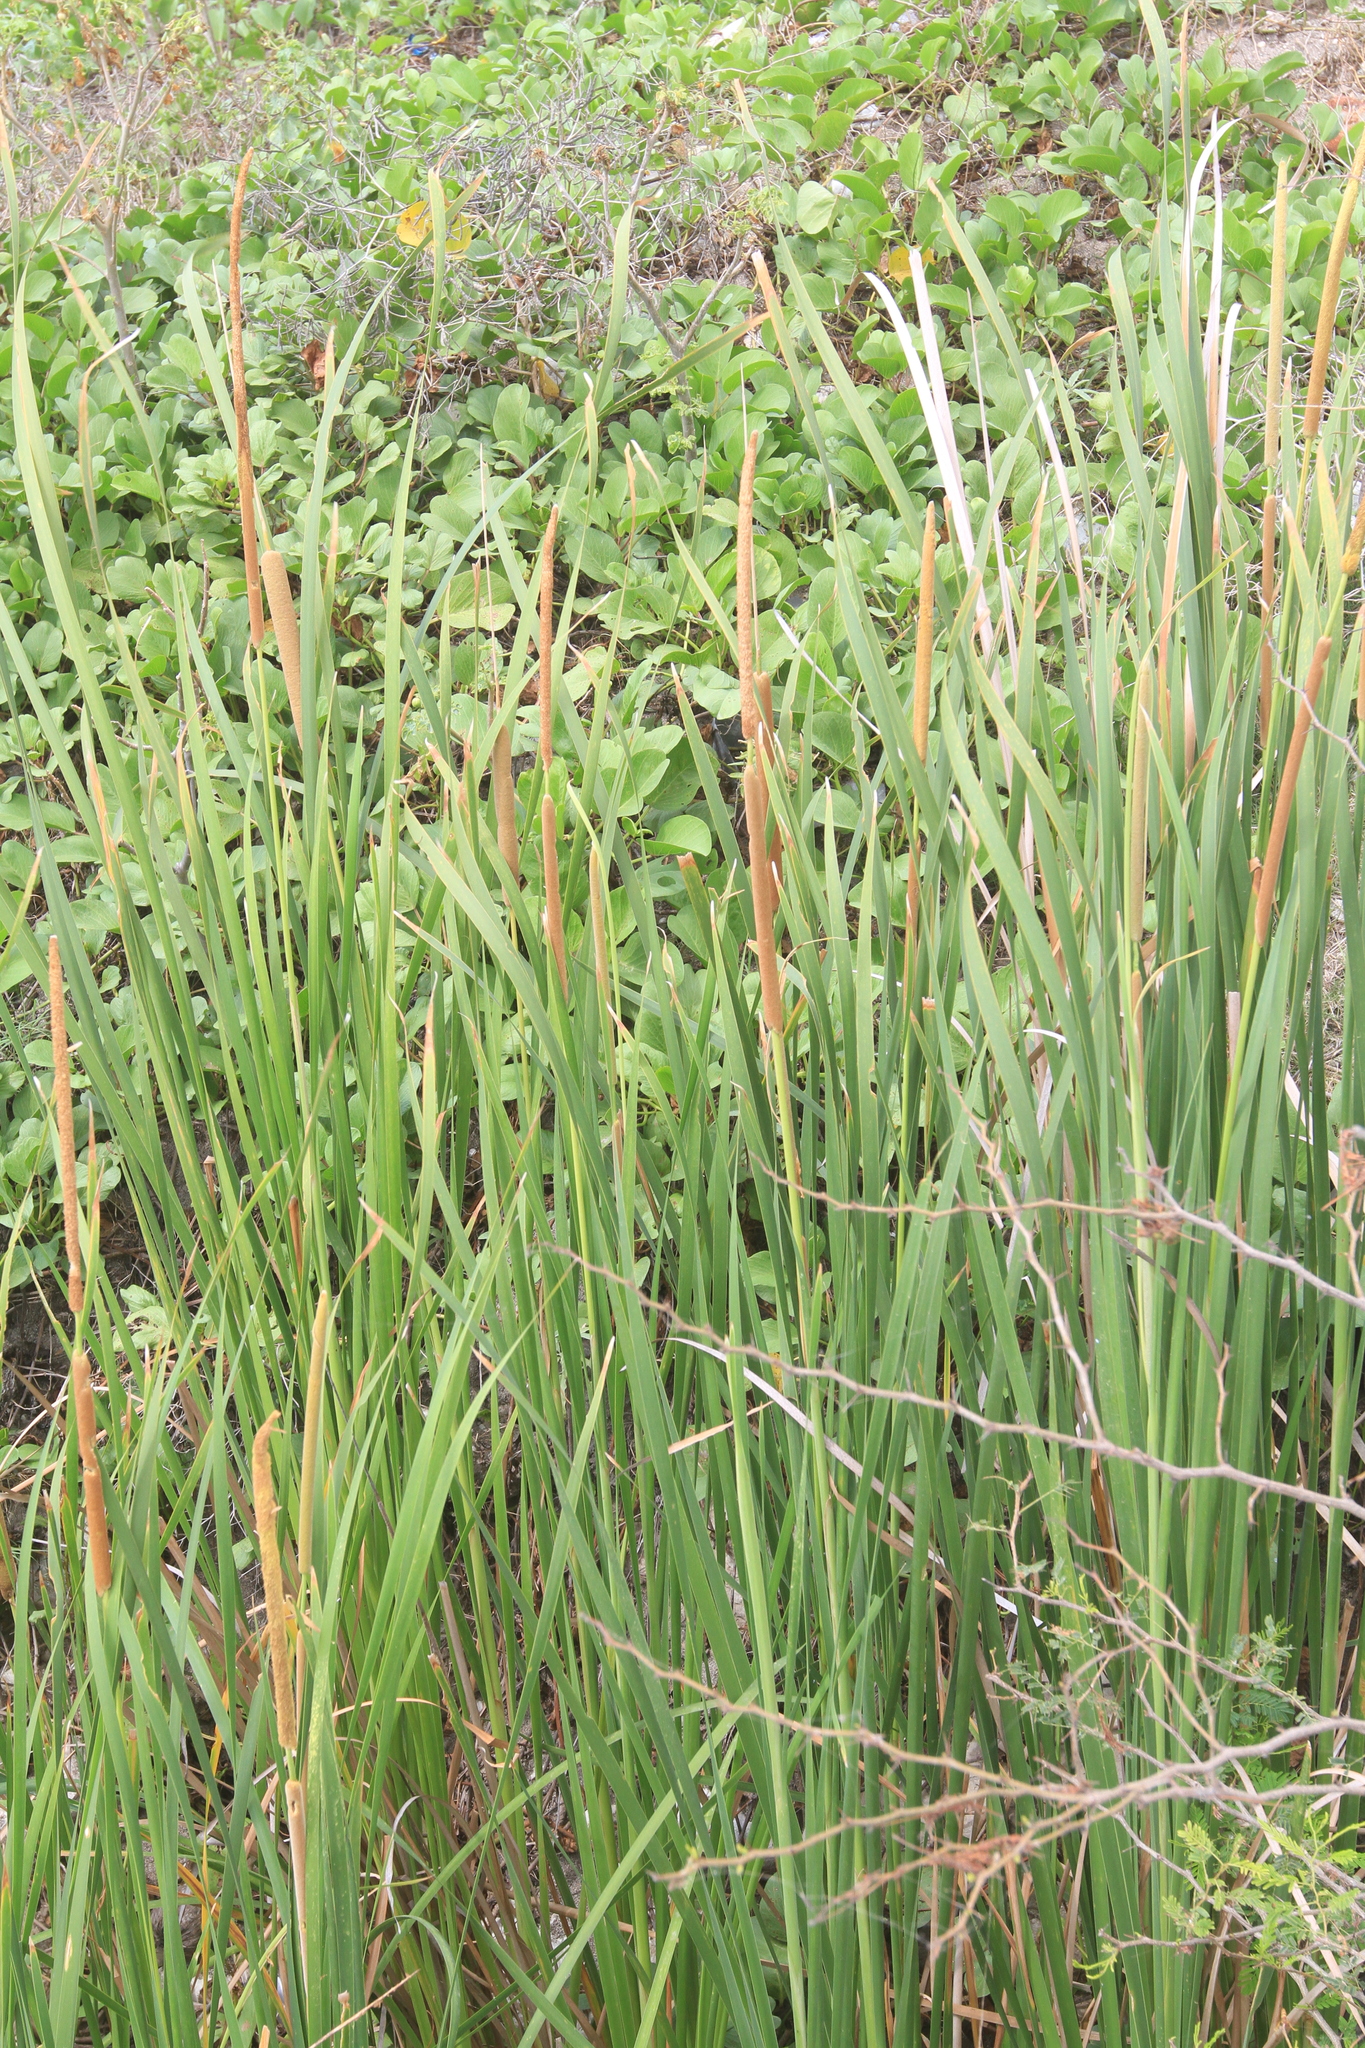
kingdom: Plantae
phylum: Tracheophyta
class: Liliopsida
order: Poales
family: Typhaceae
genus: Typha
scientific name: Typha domingensis
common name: Southern cattail
